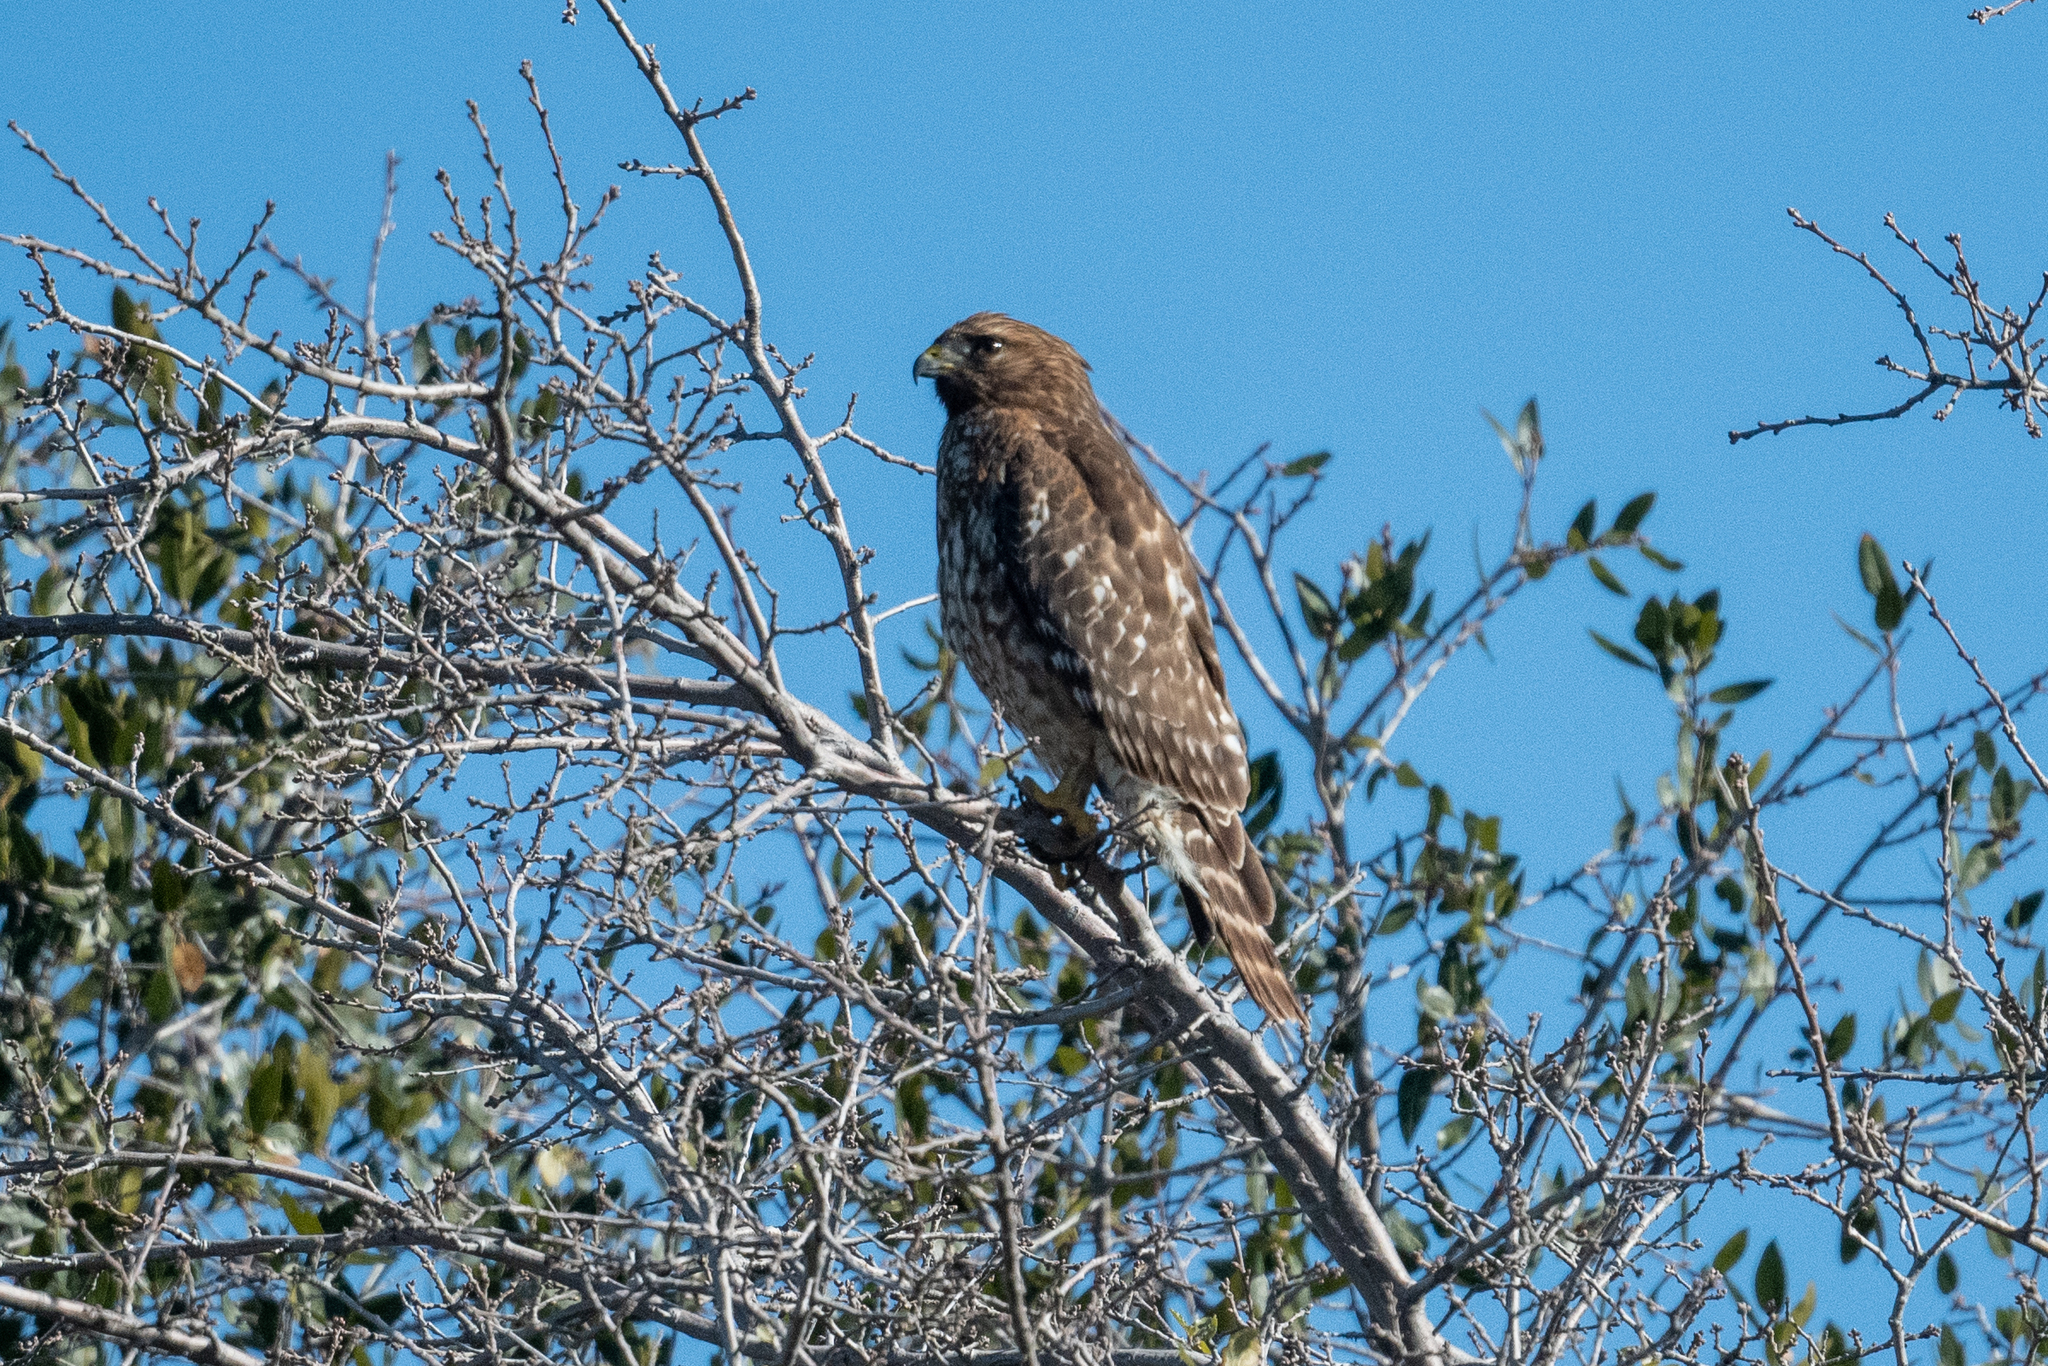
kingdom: Animalia
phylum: Chordata
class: Aves
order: Accipitriformes
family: Accipitridae
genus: Buteo
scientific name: Buteo lineatus
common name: Red-shouldered hawk
